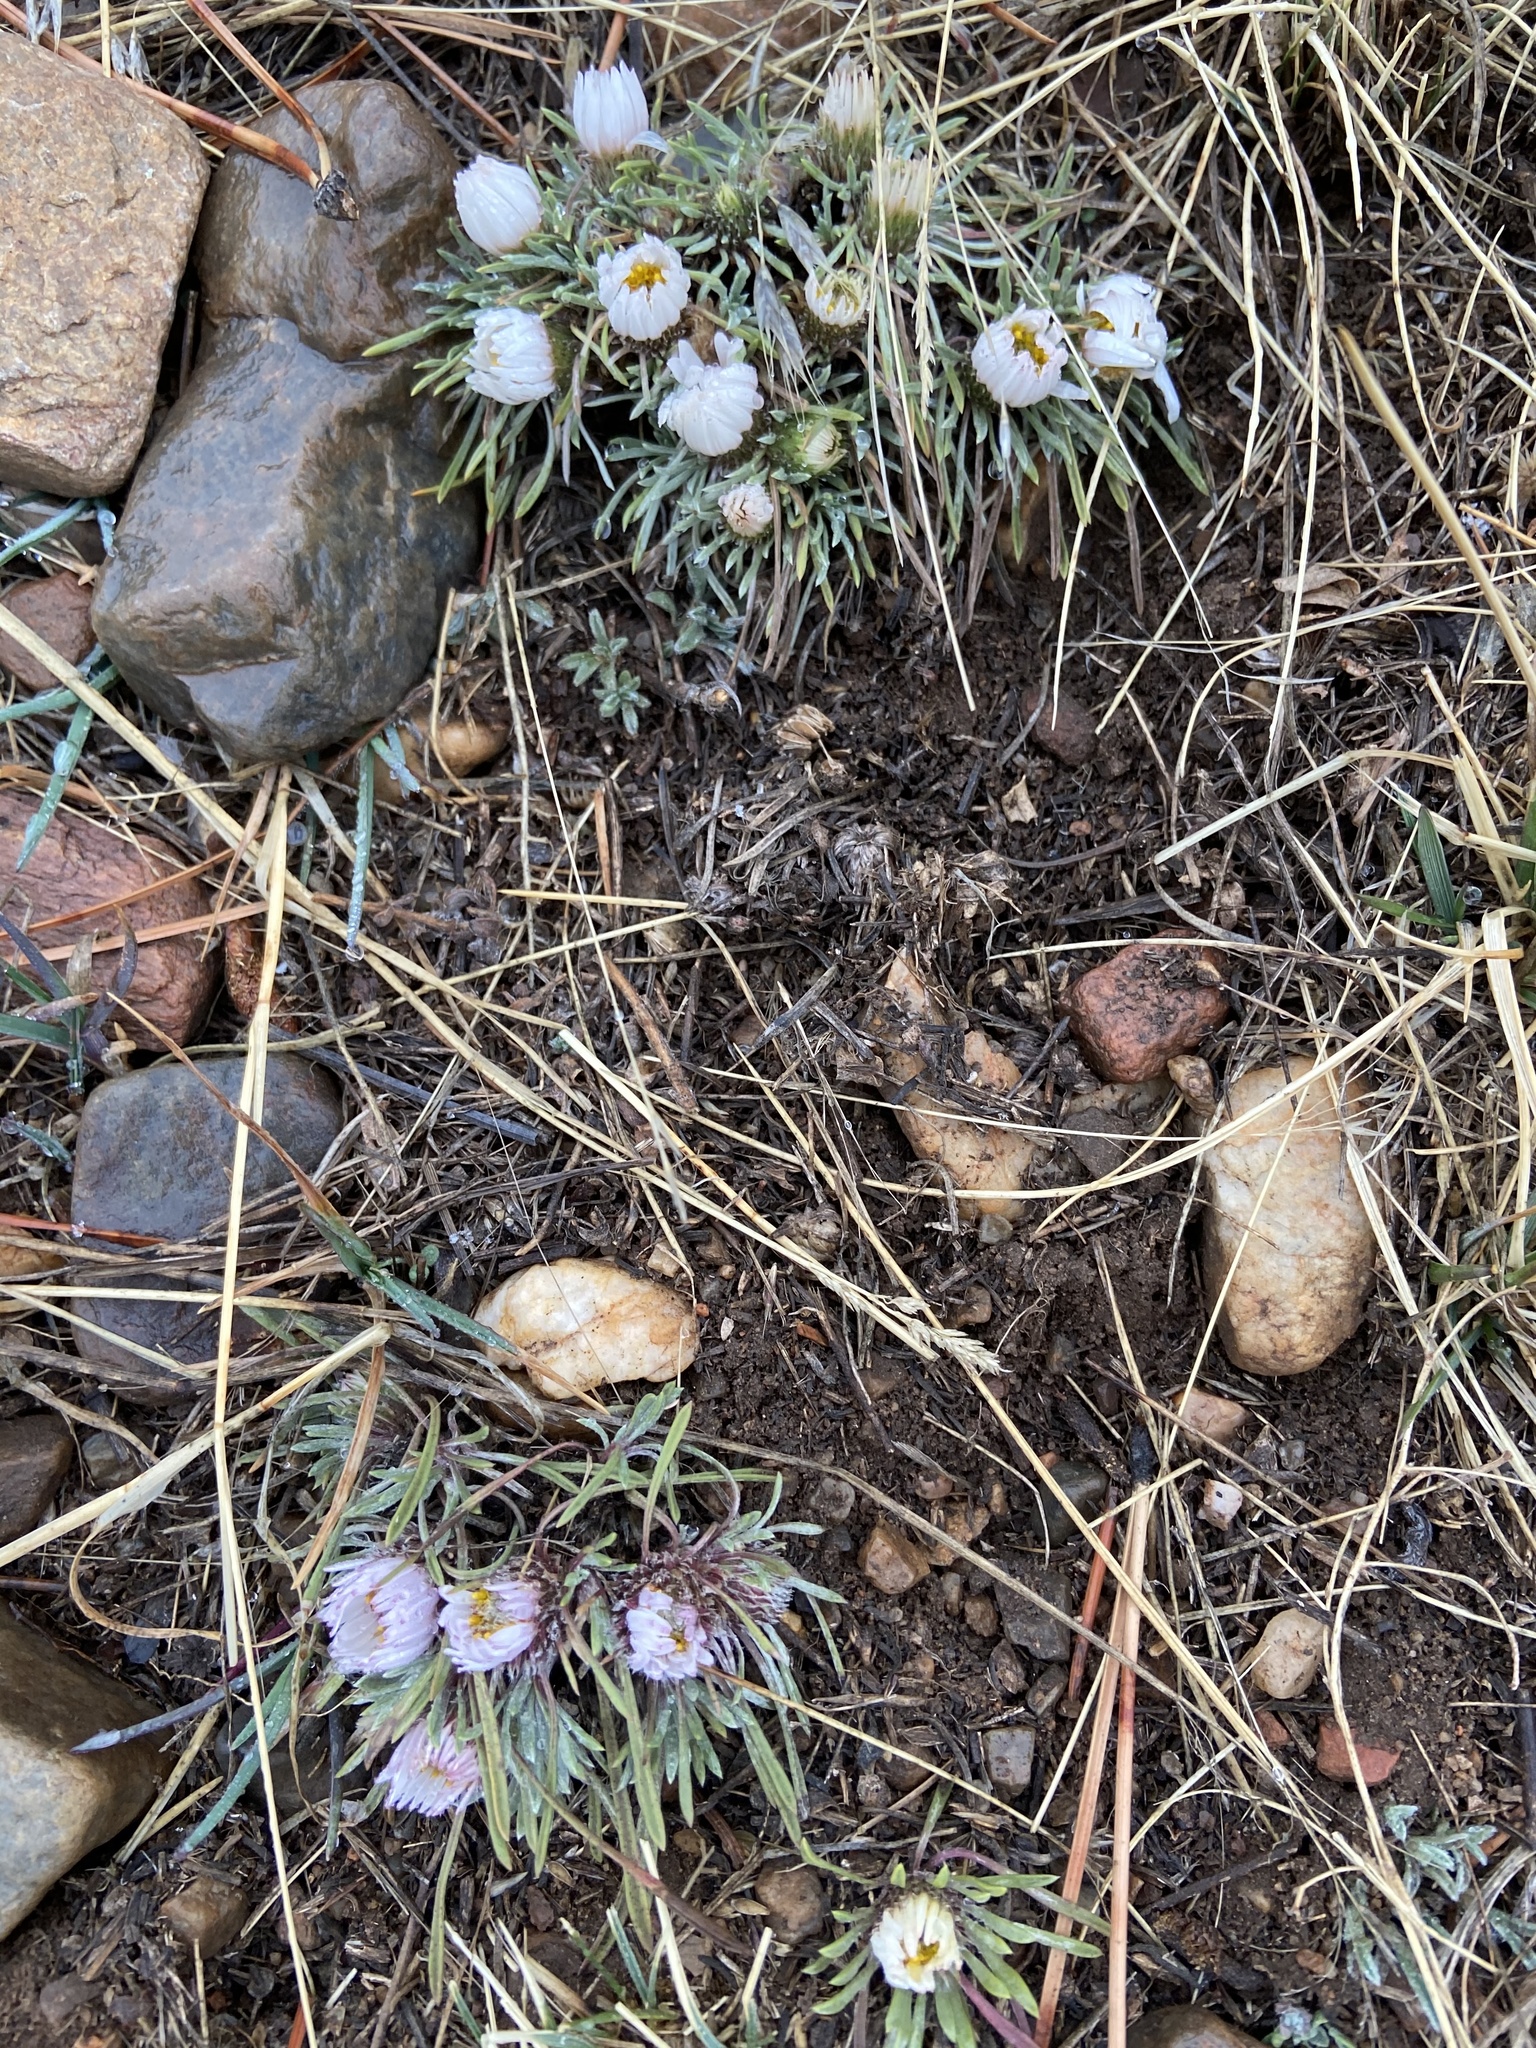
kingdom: Plantae
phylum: Tracheophyta
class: Magnoliopsida
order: Asterales
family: Asteraceae
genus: Townsendia
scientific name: Townsendia hookeri
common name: Hooker's townsend daisy
